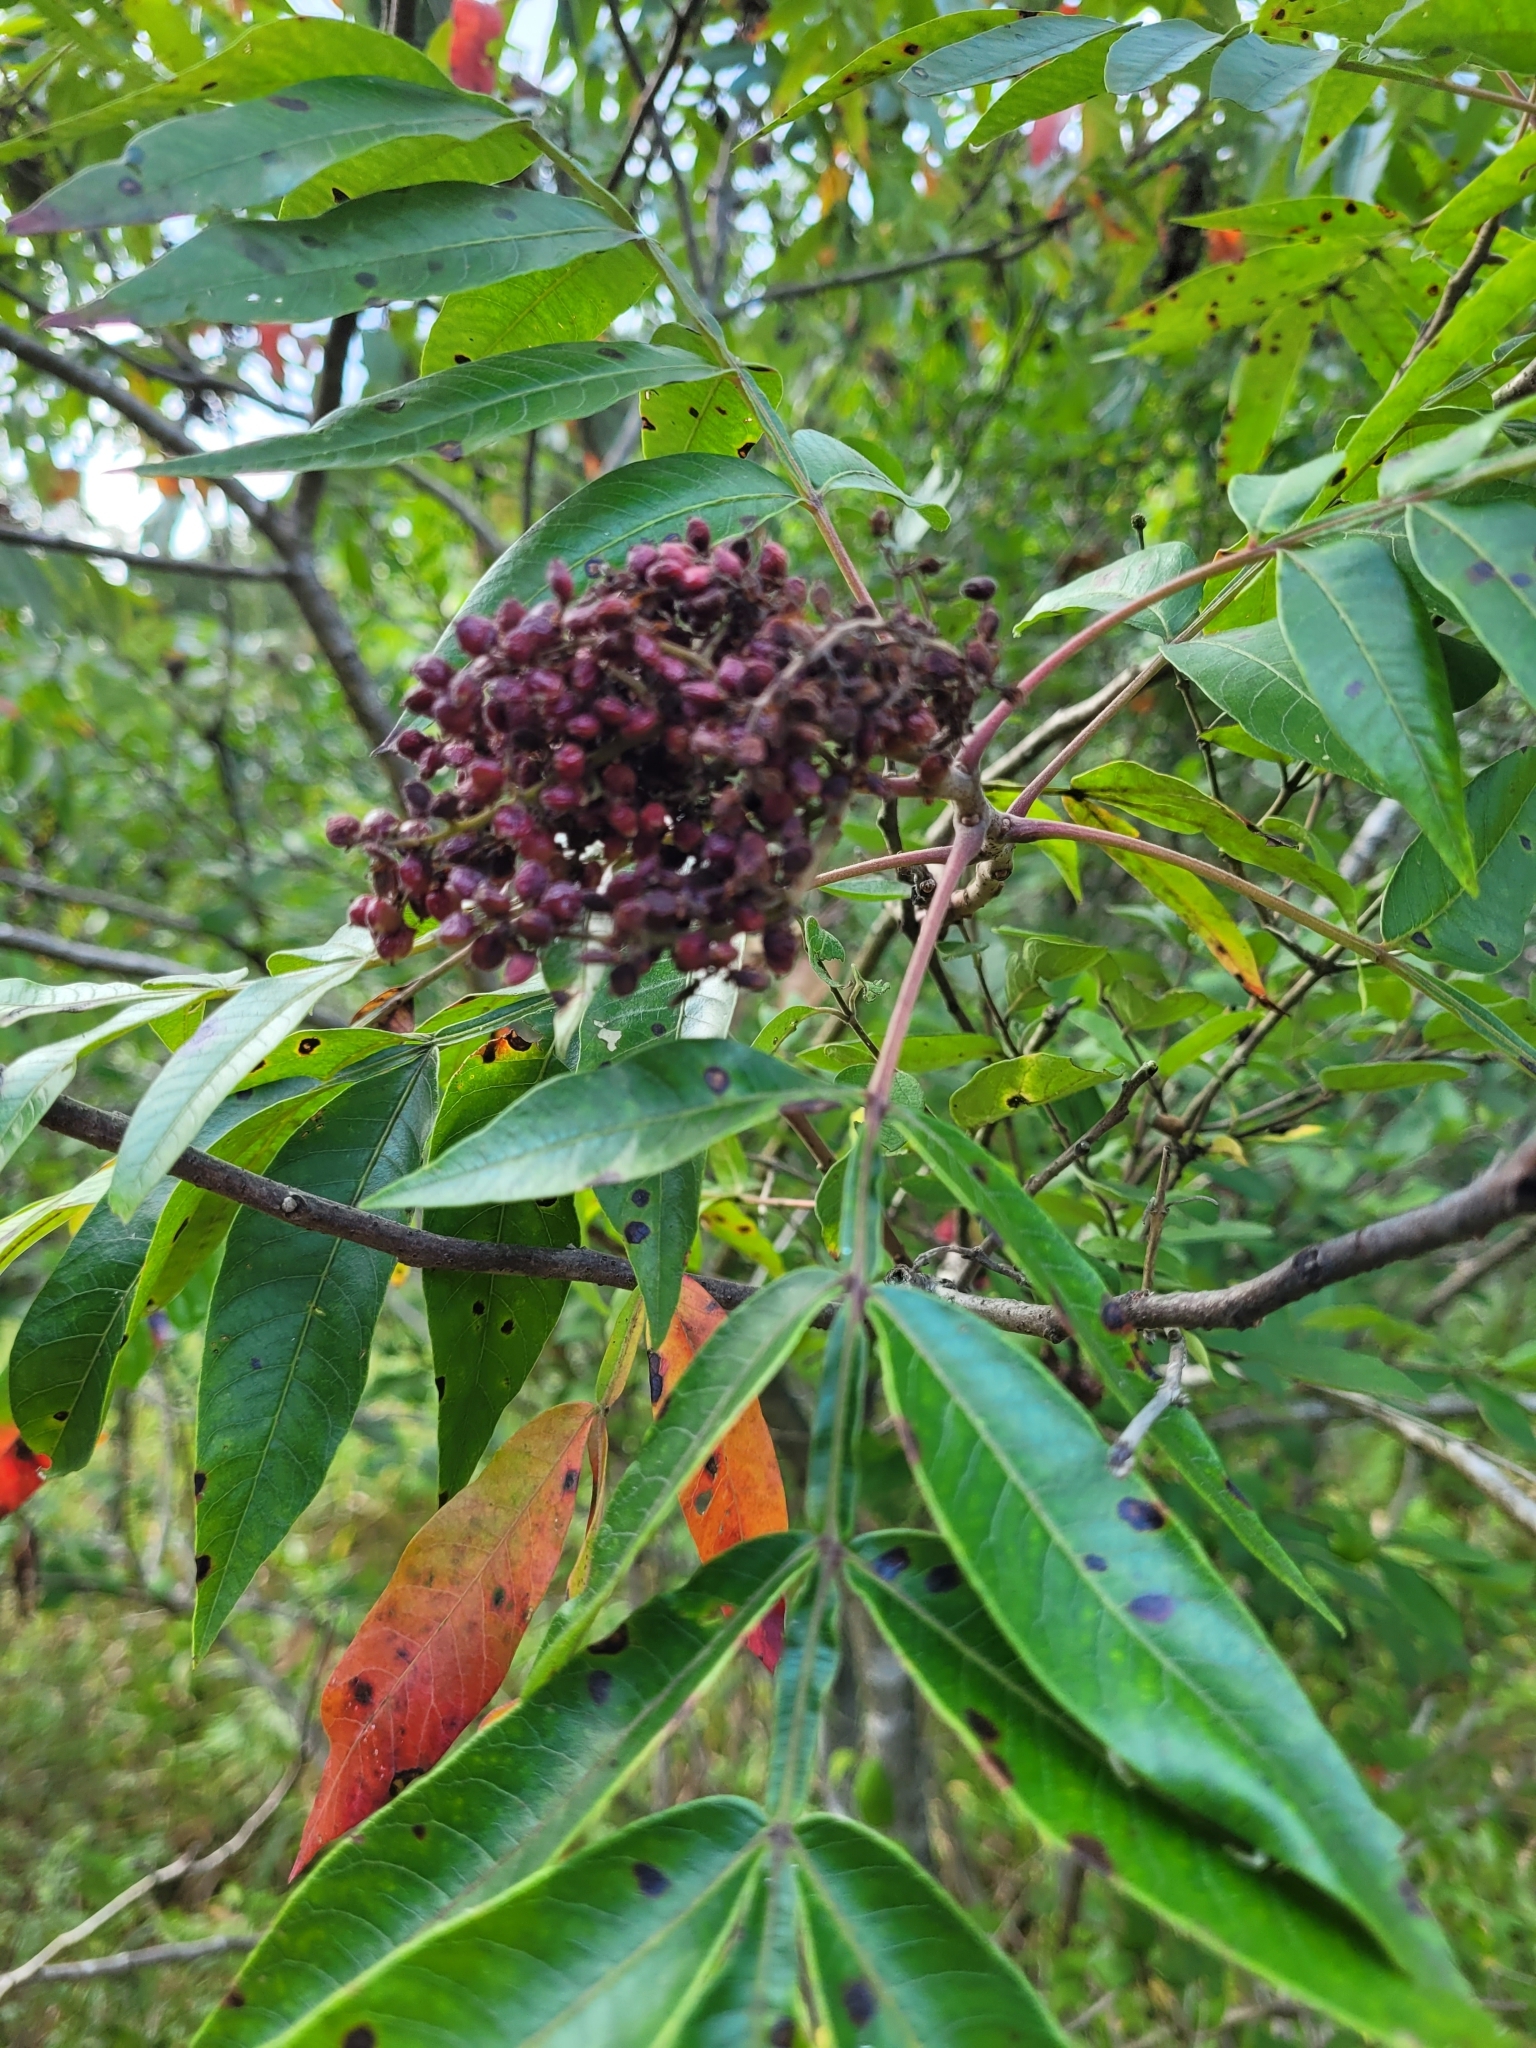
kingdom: Plantae
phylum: Tracheophyta
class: Magnoliopsida
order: Sapindales
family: Anacardiaceae
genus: Rhus
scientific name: Rhus copallina
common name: Shining sumac
